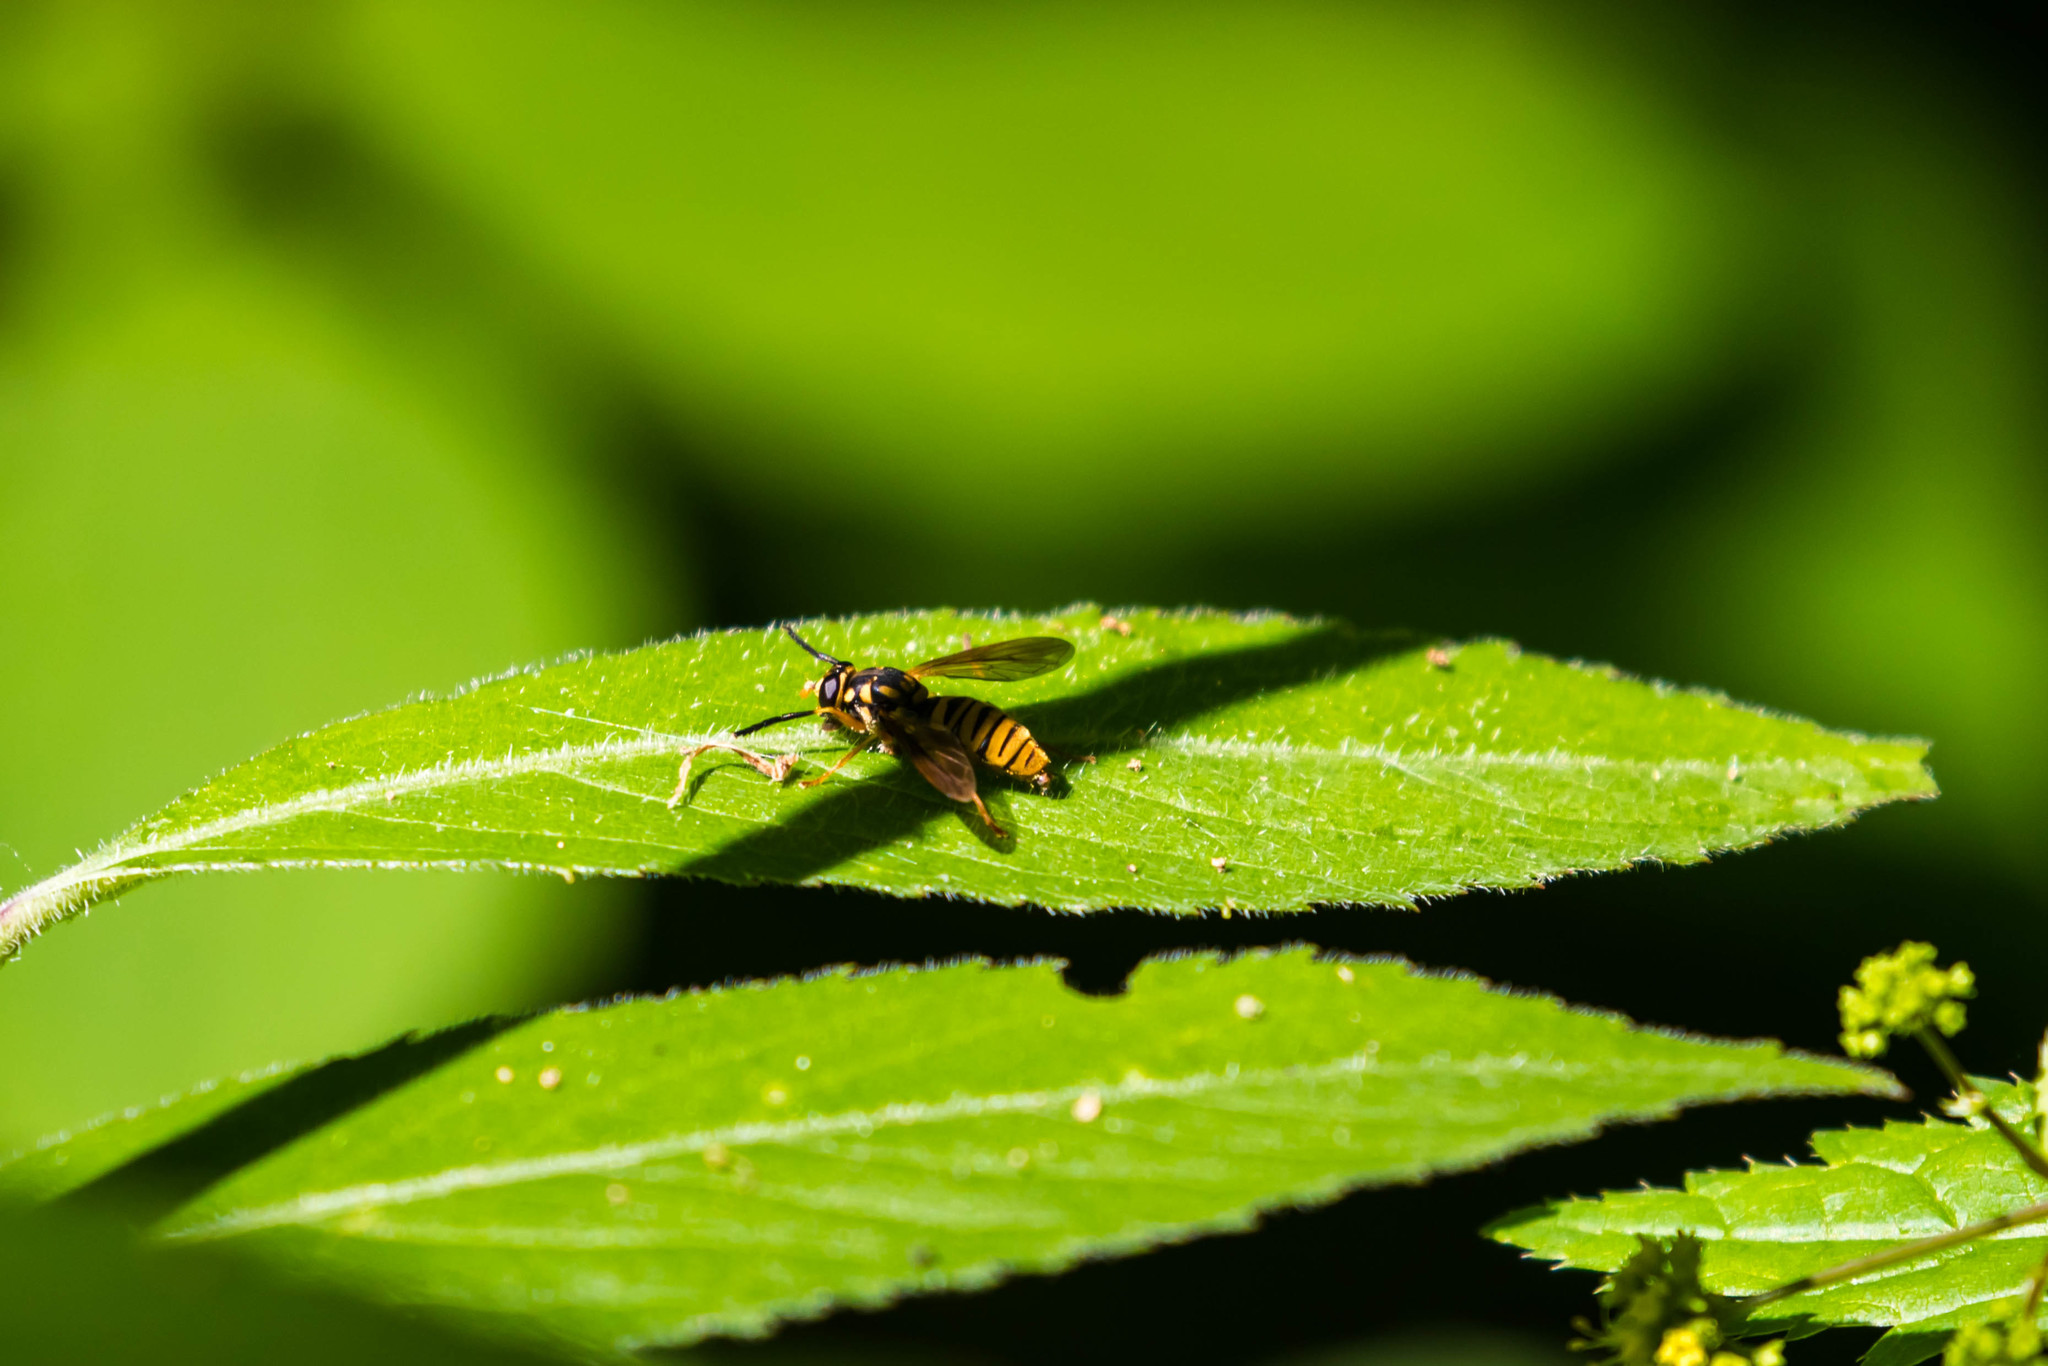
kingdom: Animalia
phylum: Arthropoda
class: Insecta
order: Diptera
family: Syrphidae
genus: Temnostoma
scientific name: Temnostoma daochum
